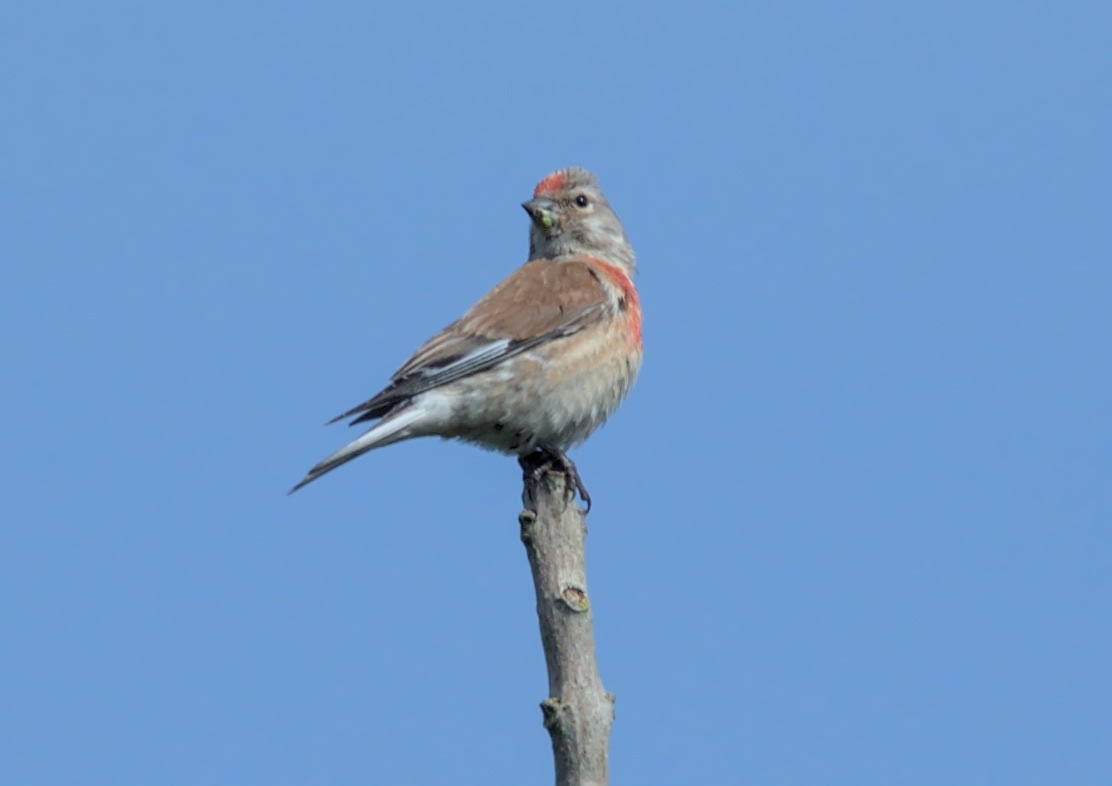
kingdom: Animalia
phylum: Chordata
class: Aves
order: Passeriformes
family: Fringillidae
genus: Linaria
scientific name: Linaria cannabina
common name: Common linnet
